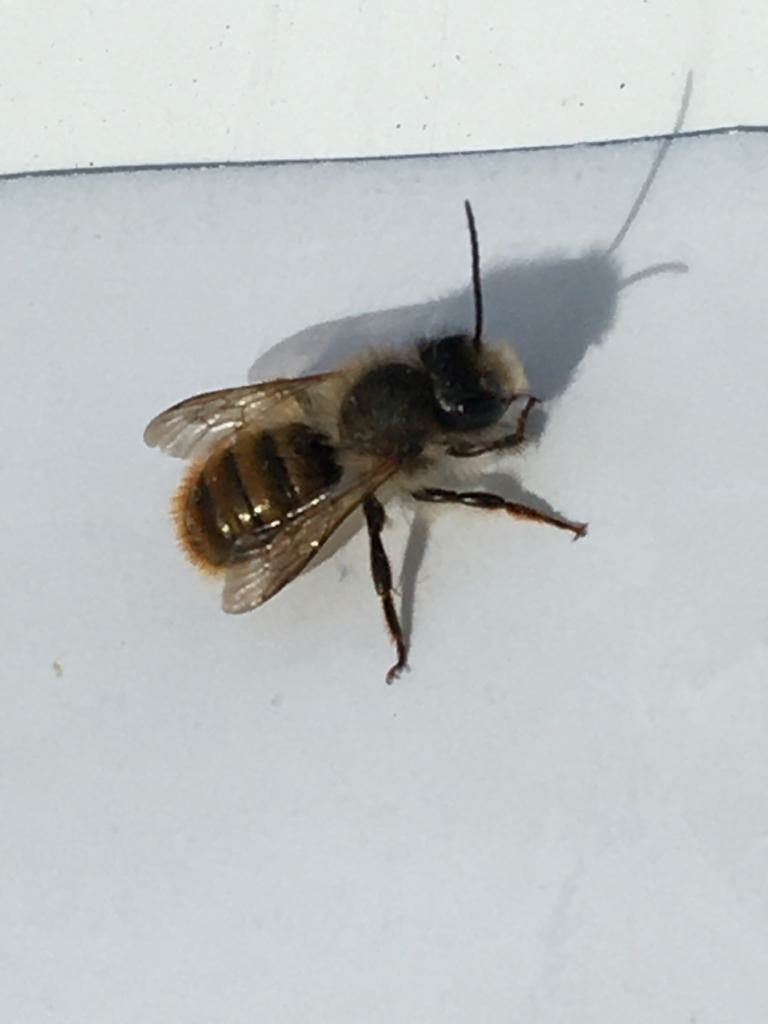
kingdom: Animalia
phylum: Arthropoda
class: Insecta
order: Hymenoptera
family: Megachilidae
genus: Osmia
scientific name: Osmia bicornis
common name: Red mason bee
